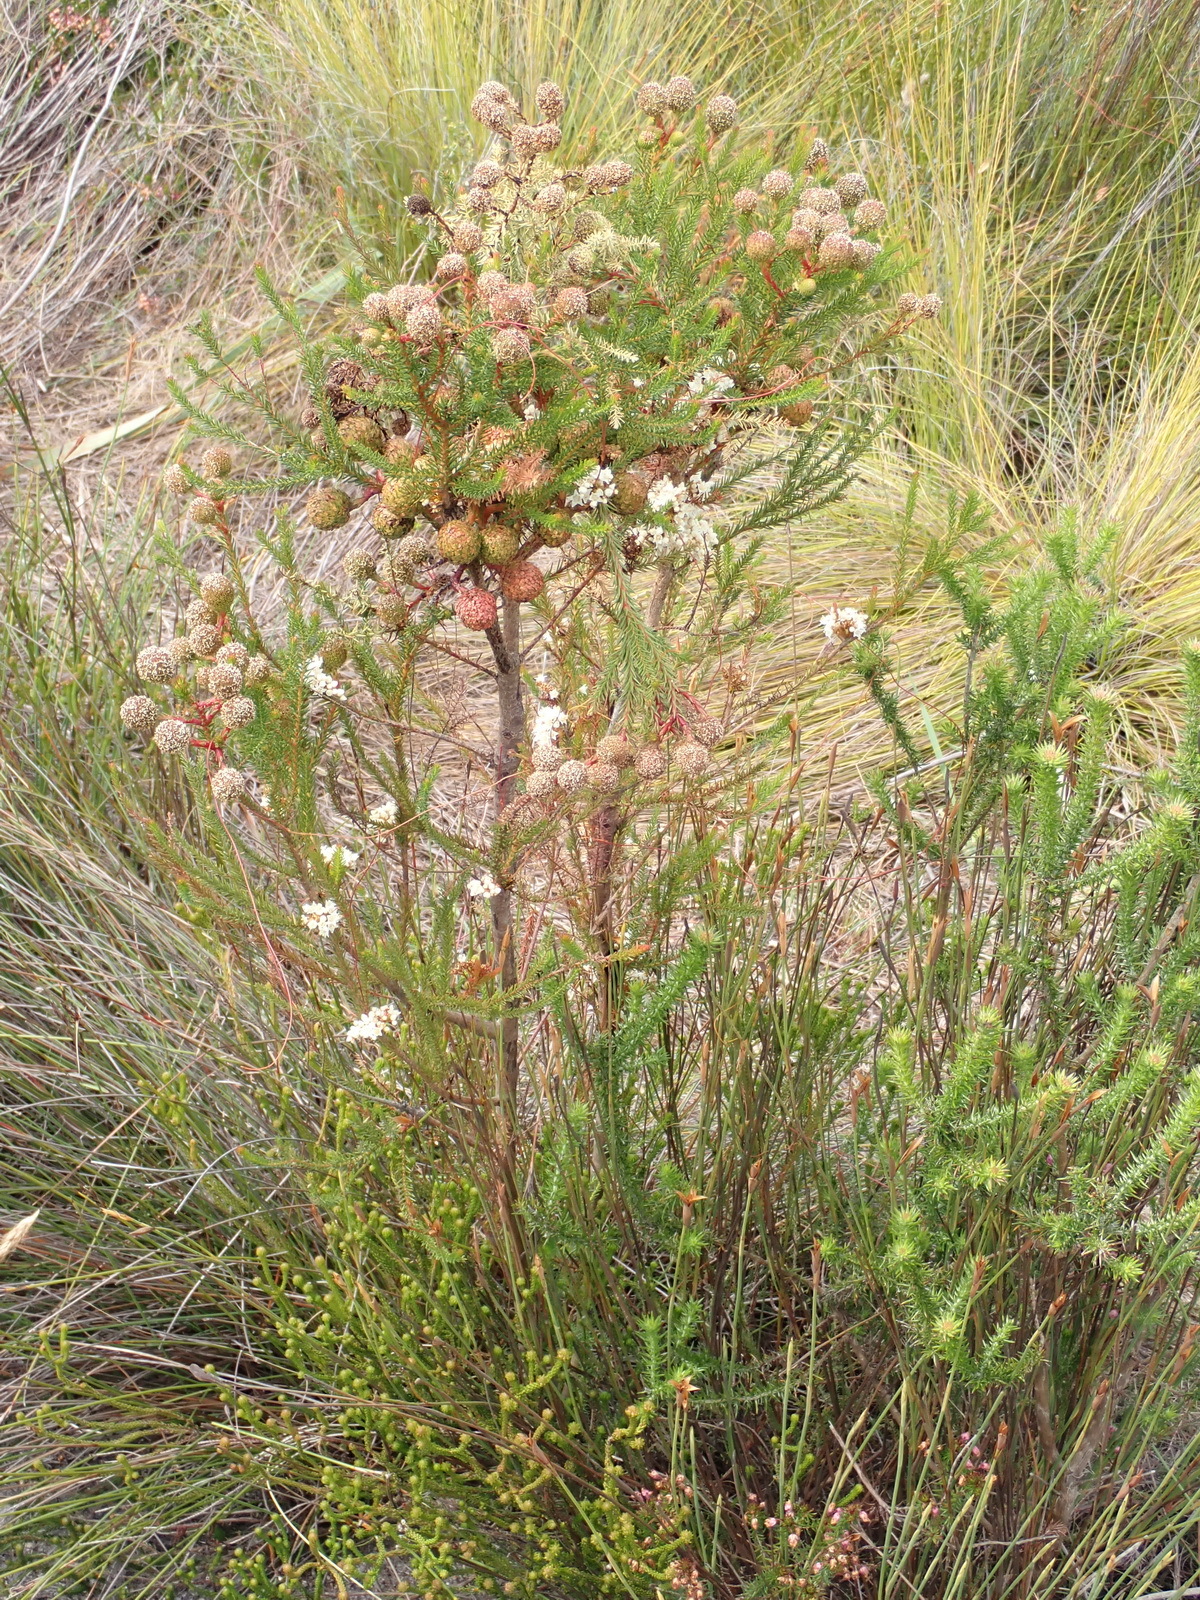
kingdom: Plantae
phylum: Tracheophyta
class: Magnoliopsida
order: Bruniales
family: Bruniaceae
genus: Berzelia
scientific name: Berzelia intermedia
